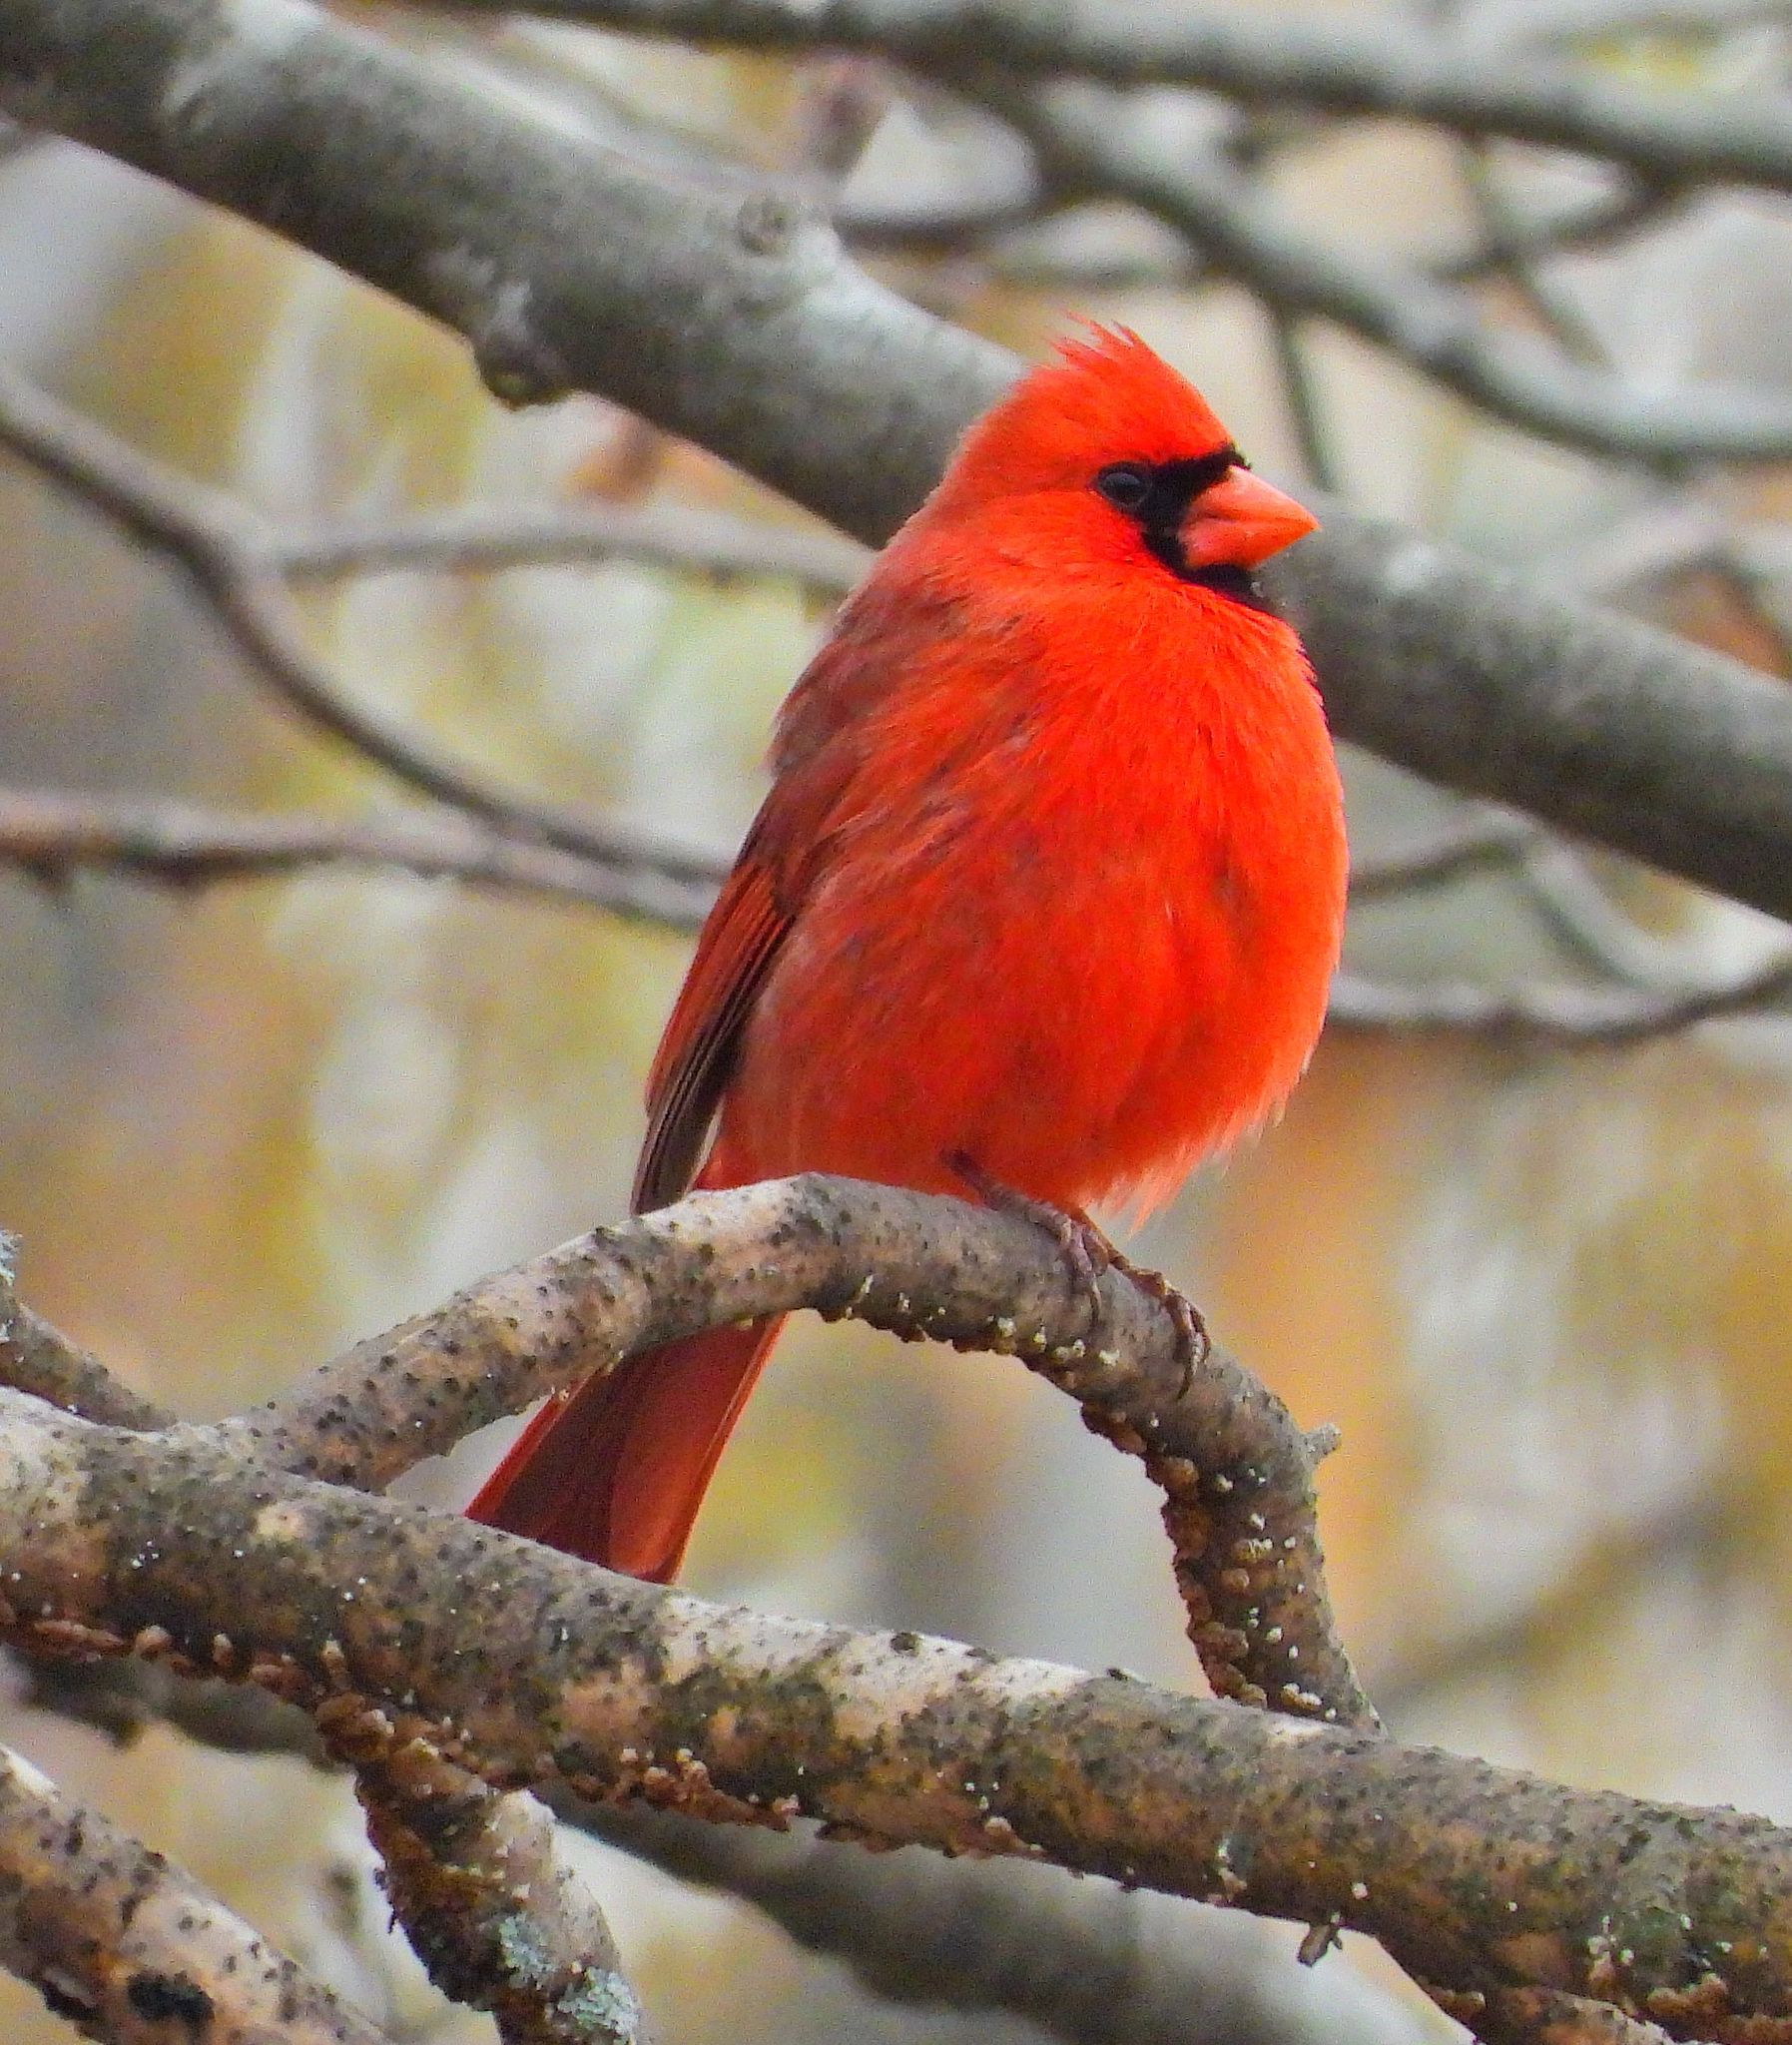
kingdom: Animalia
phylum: Chordata
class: Aves
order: Passeriformes
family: Cardinalidae
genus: Cardinalis
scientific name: Cardinalis cardinalis
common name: Northern cardinal
